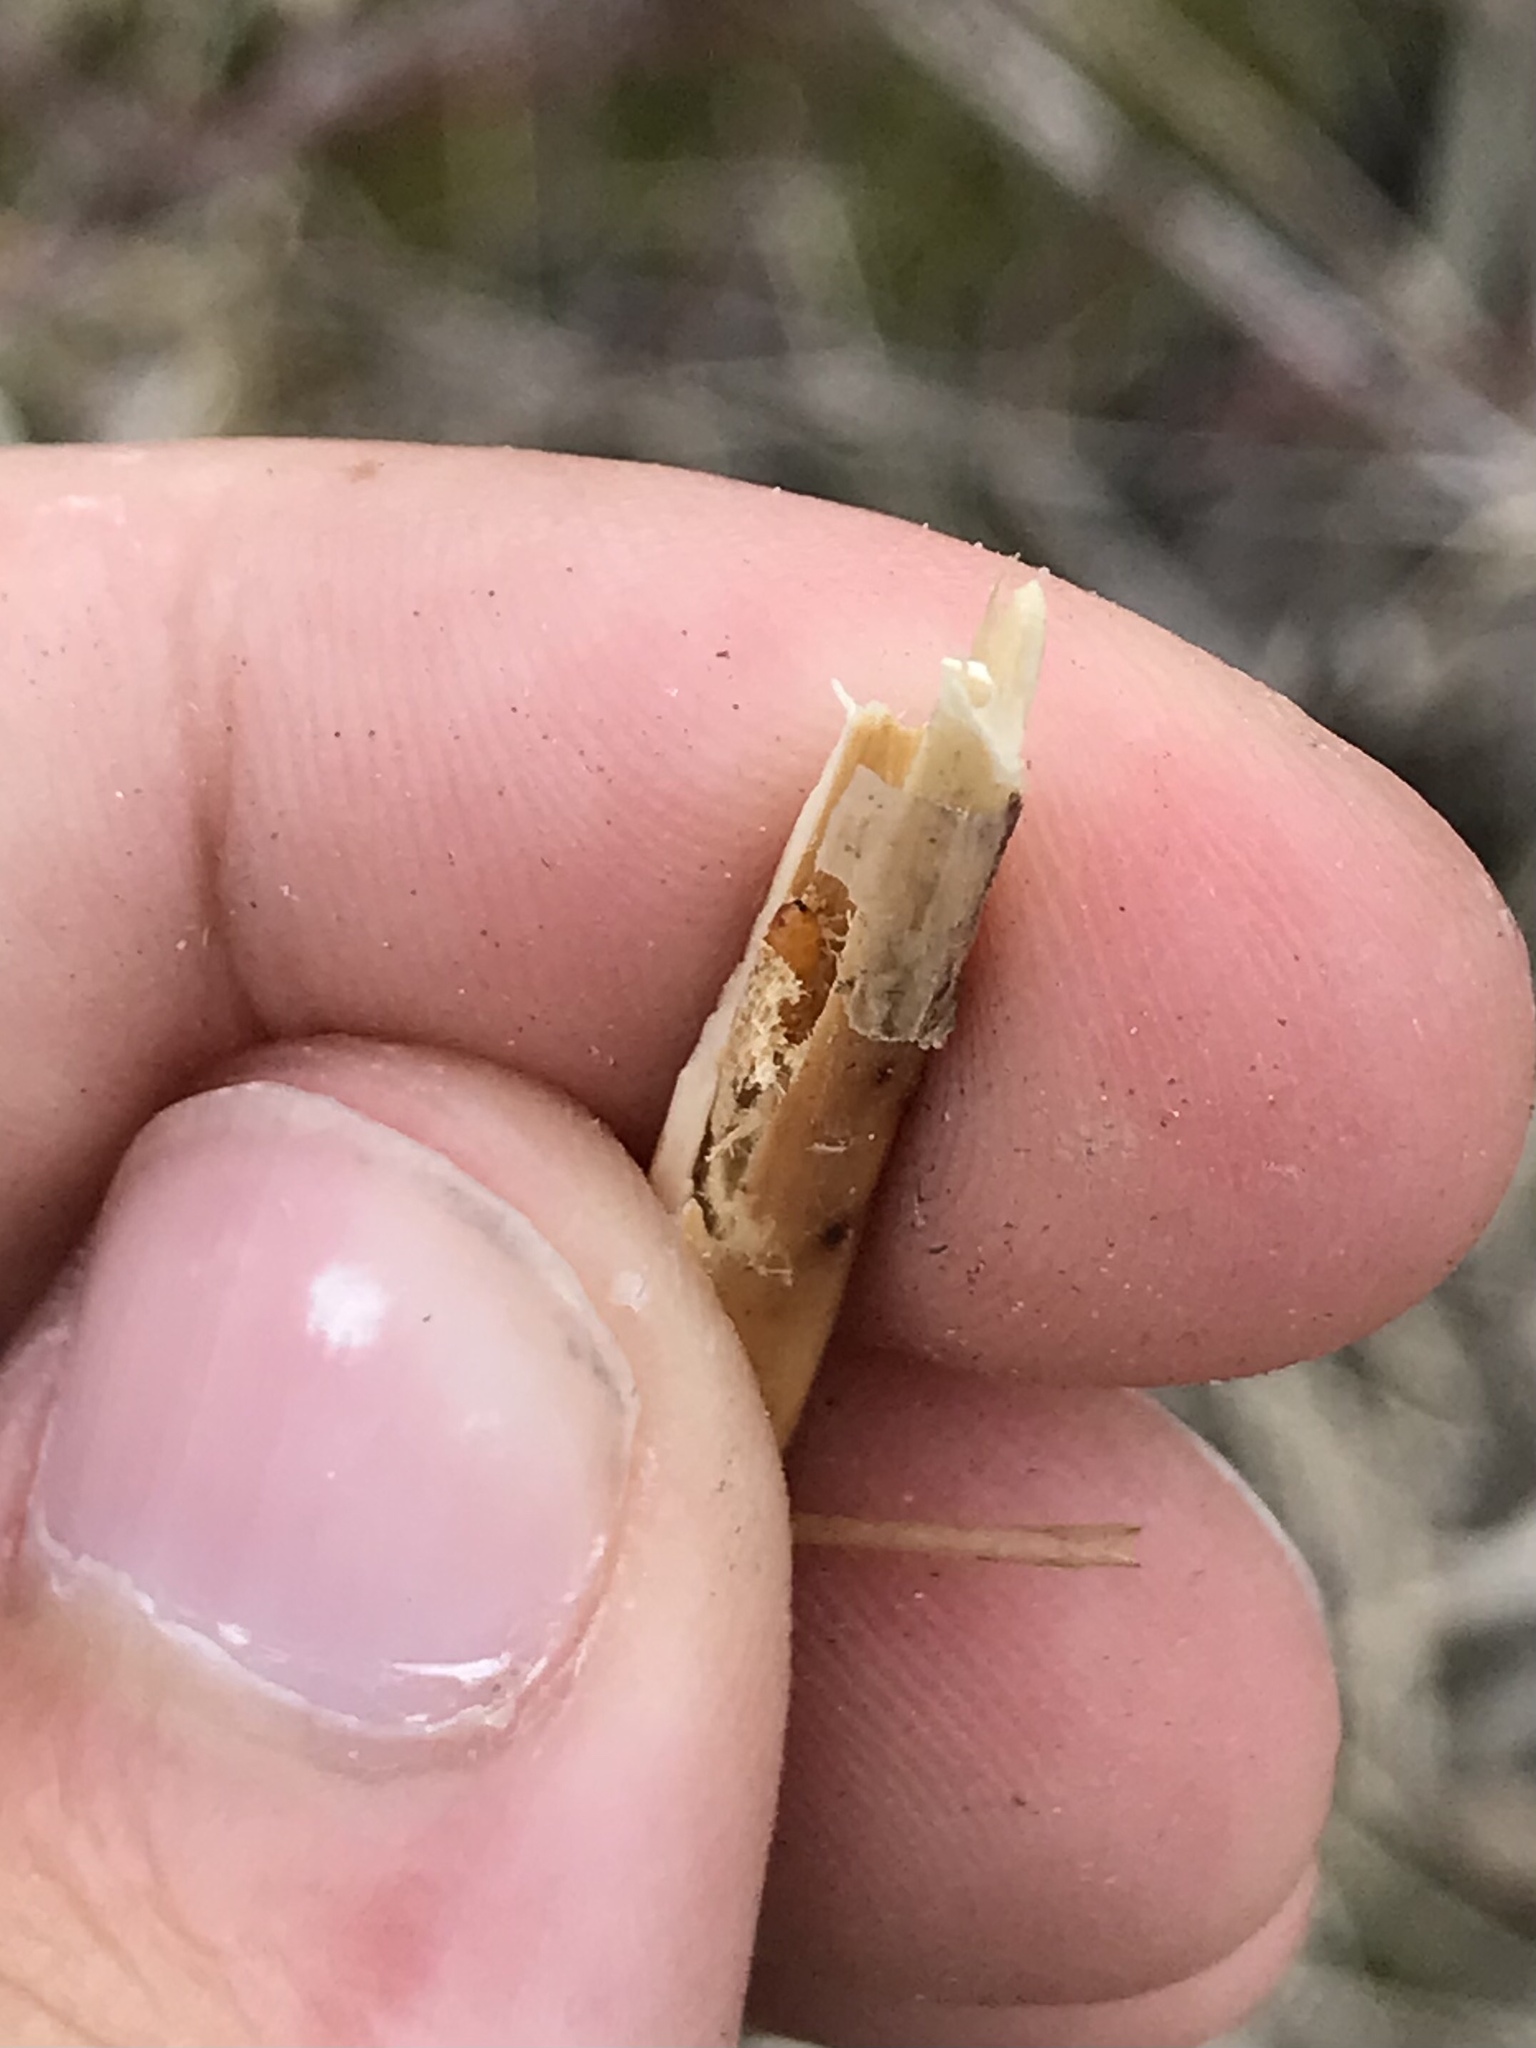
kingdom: Animalia
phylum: Arthropoda
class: Insecta
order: Diptera
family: Agromyzidae
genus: Melanagromyza
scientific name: Melanagromyza gentianivora
